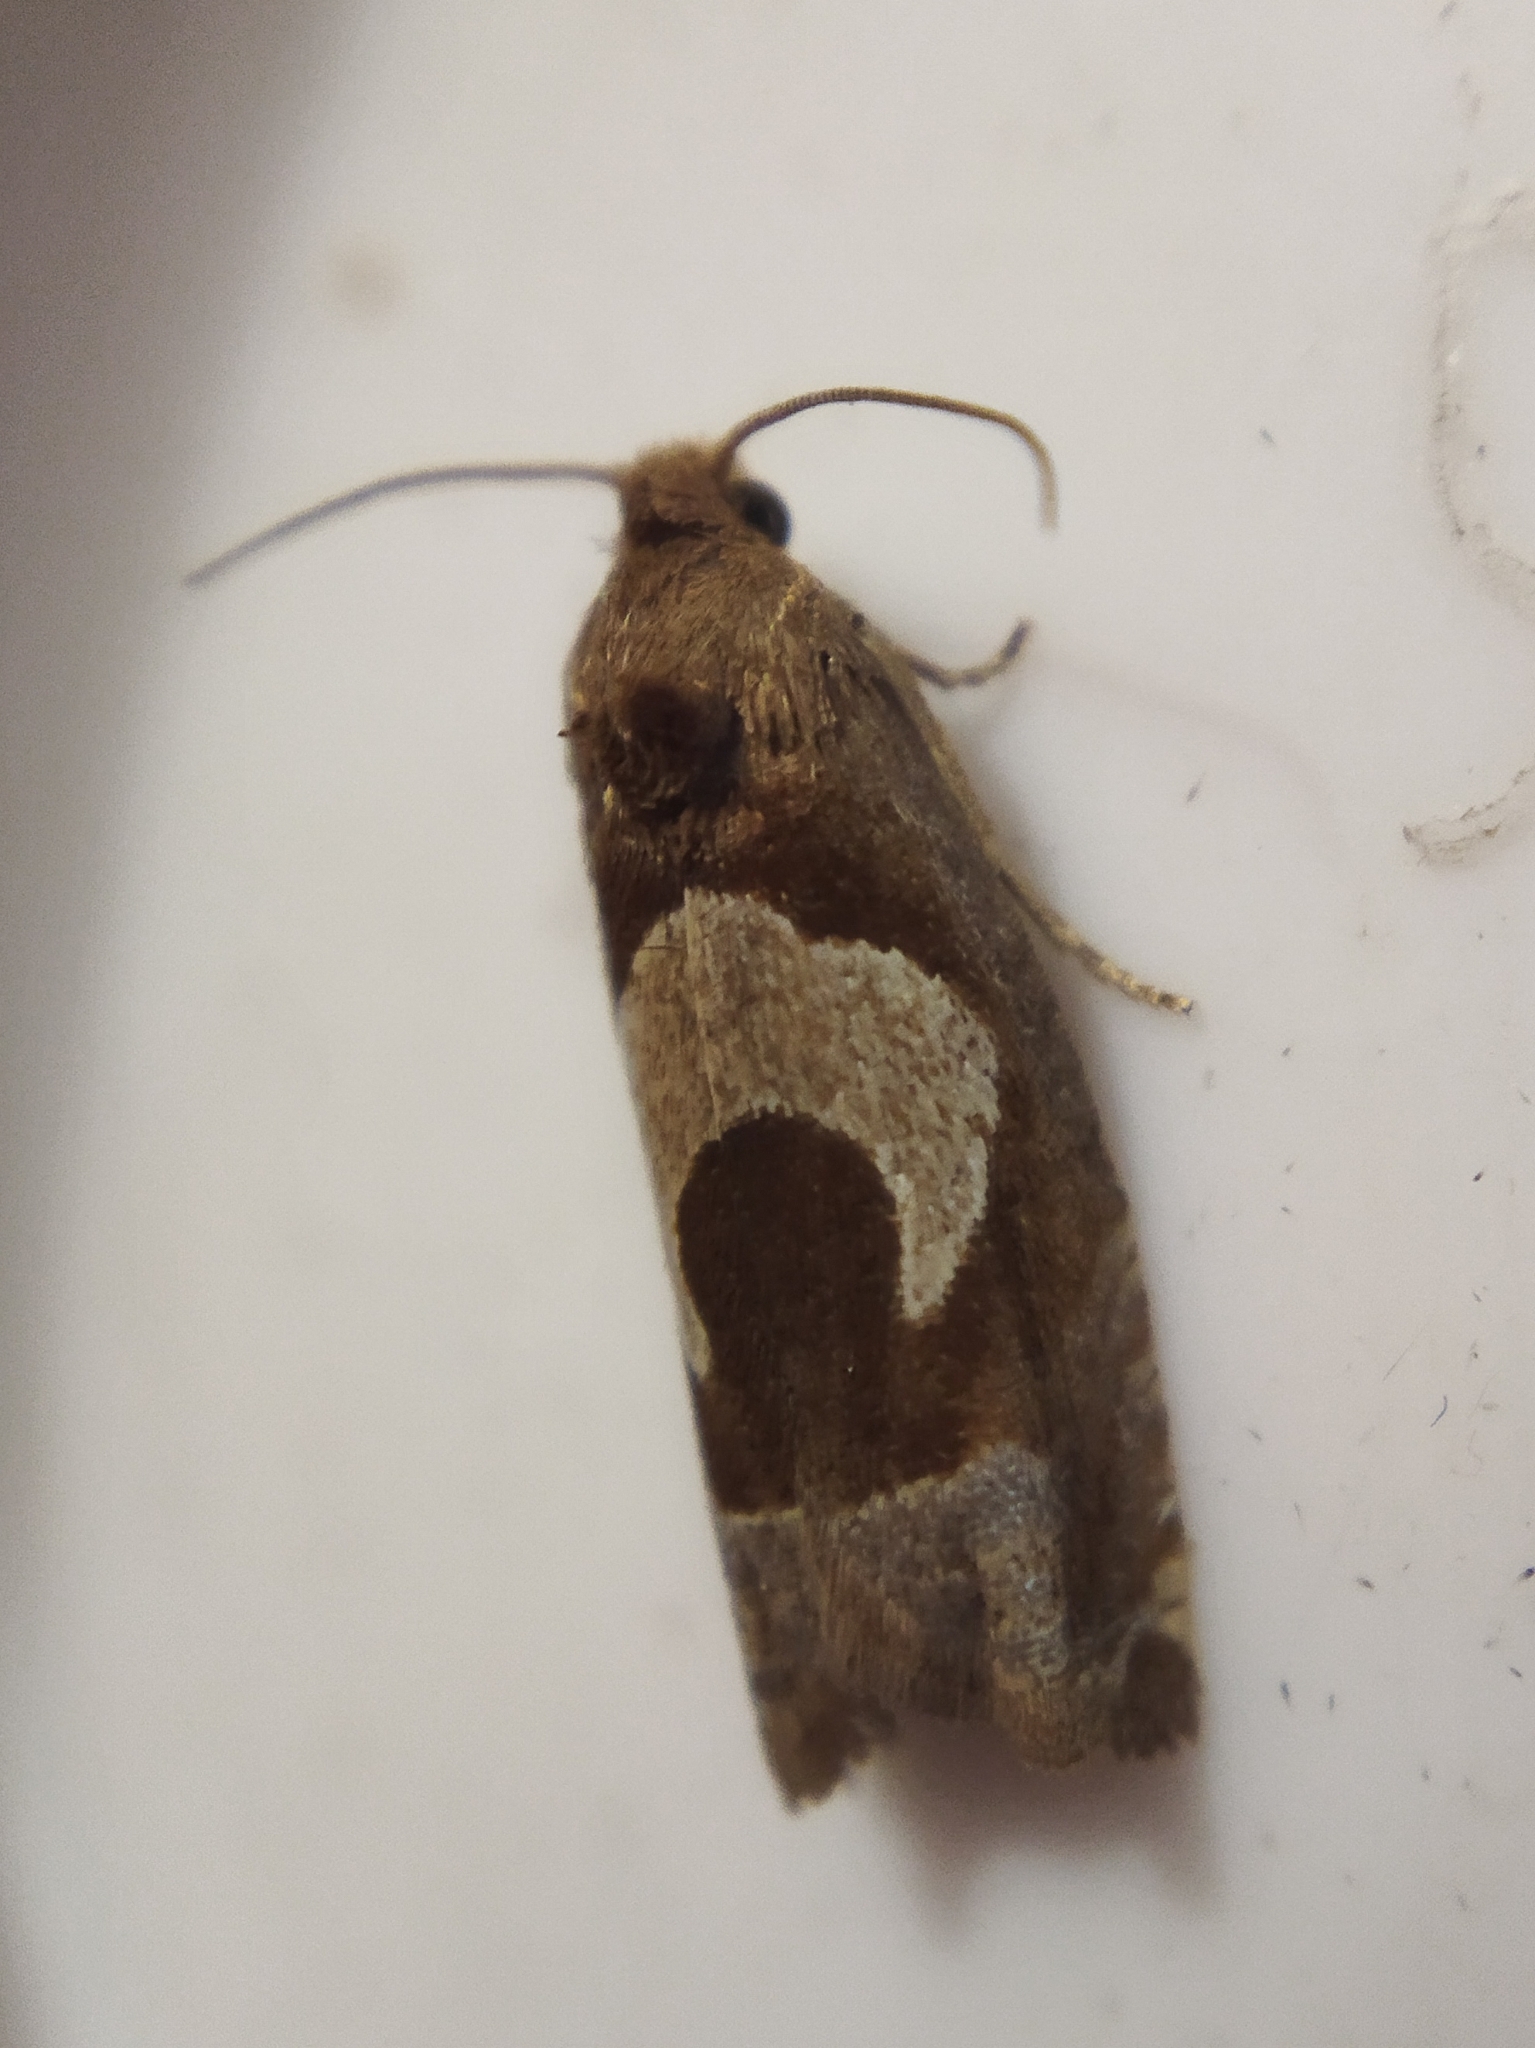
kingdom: Animalia
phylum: Arthropoda
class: Insecta
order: Lepidoptera
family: Tortricidae
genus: Epiblema
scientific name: Epiblema foenella
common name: White-foot bell
